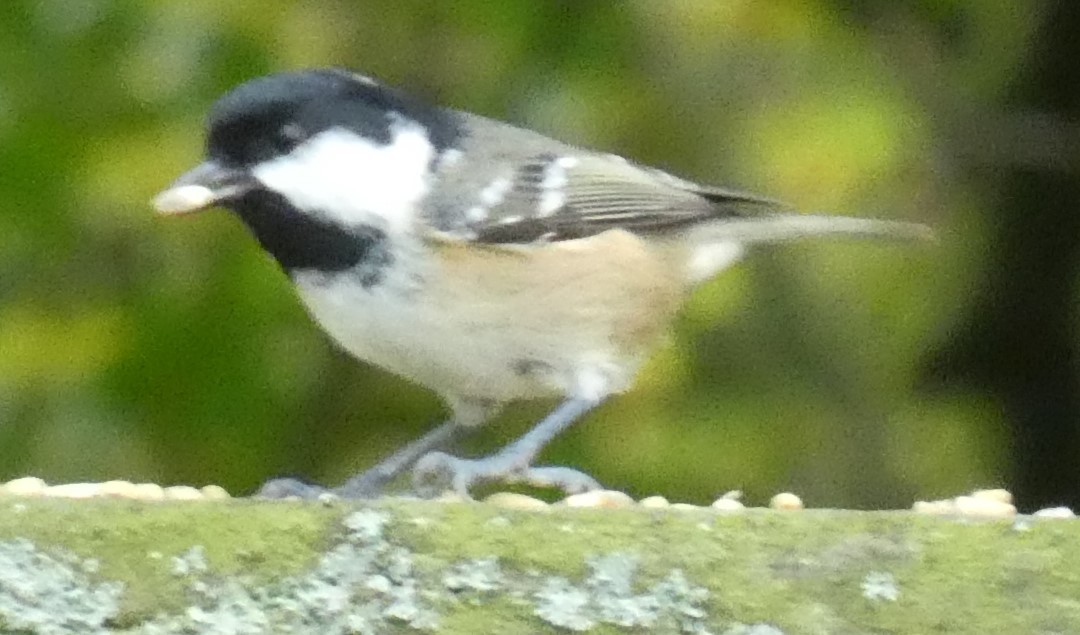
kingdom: Animalia
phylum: Chordata
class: Aves
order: Passeriformes
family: Paridae
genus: Periparus
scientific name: Periparus ater
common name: Coal tit
